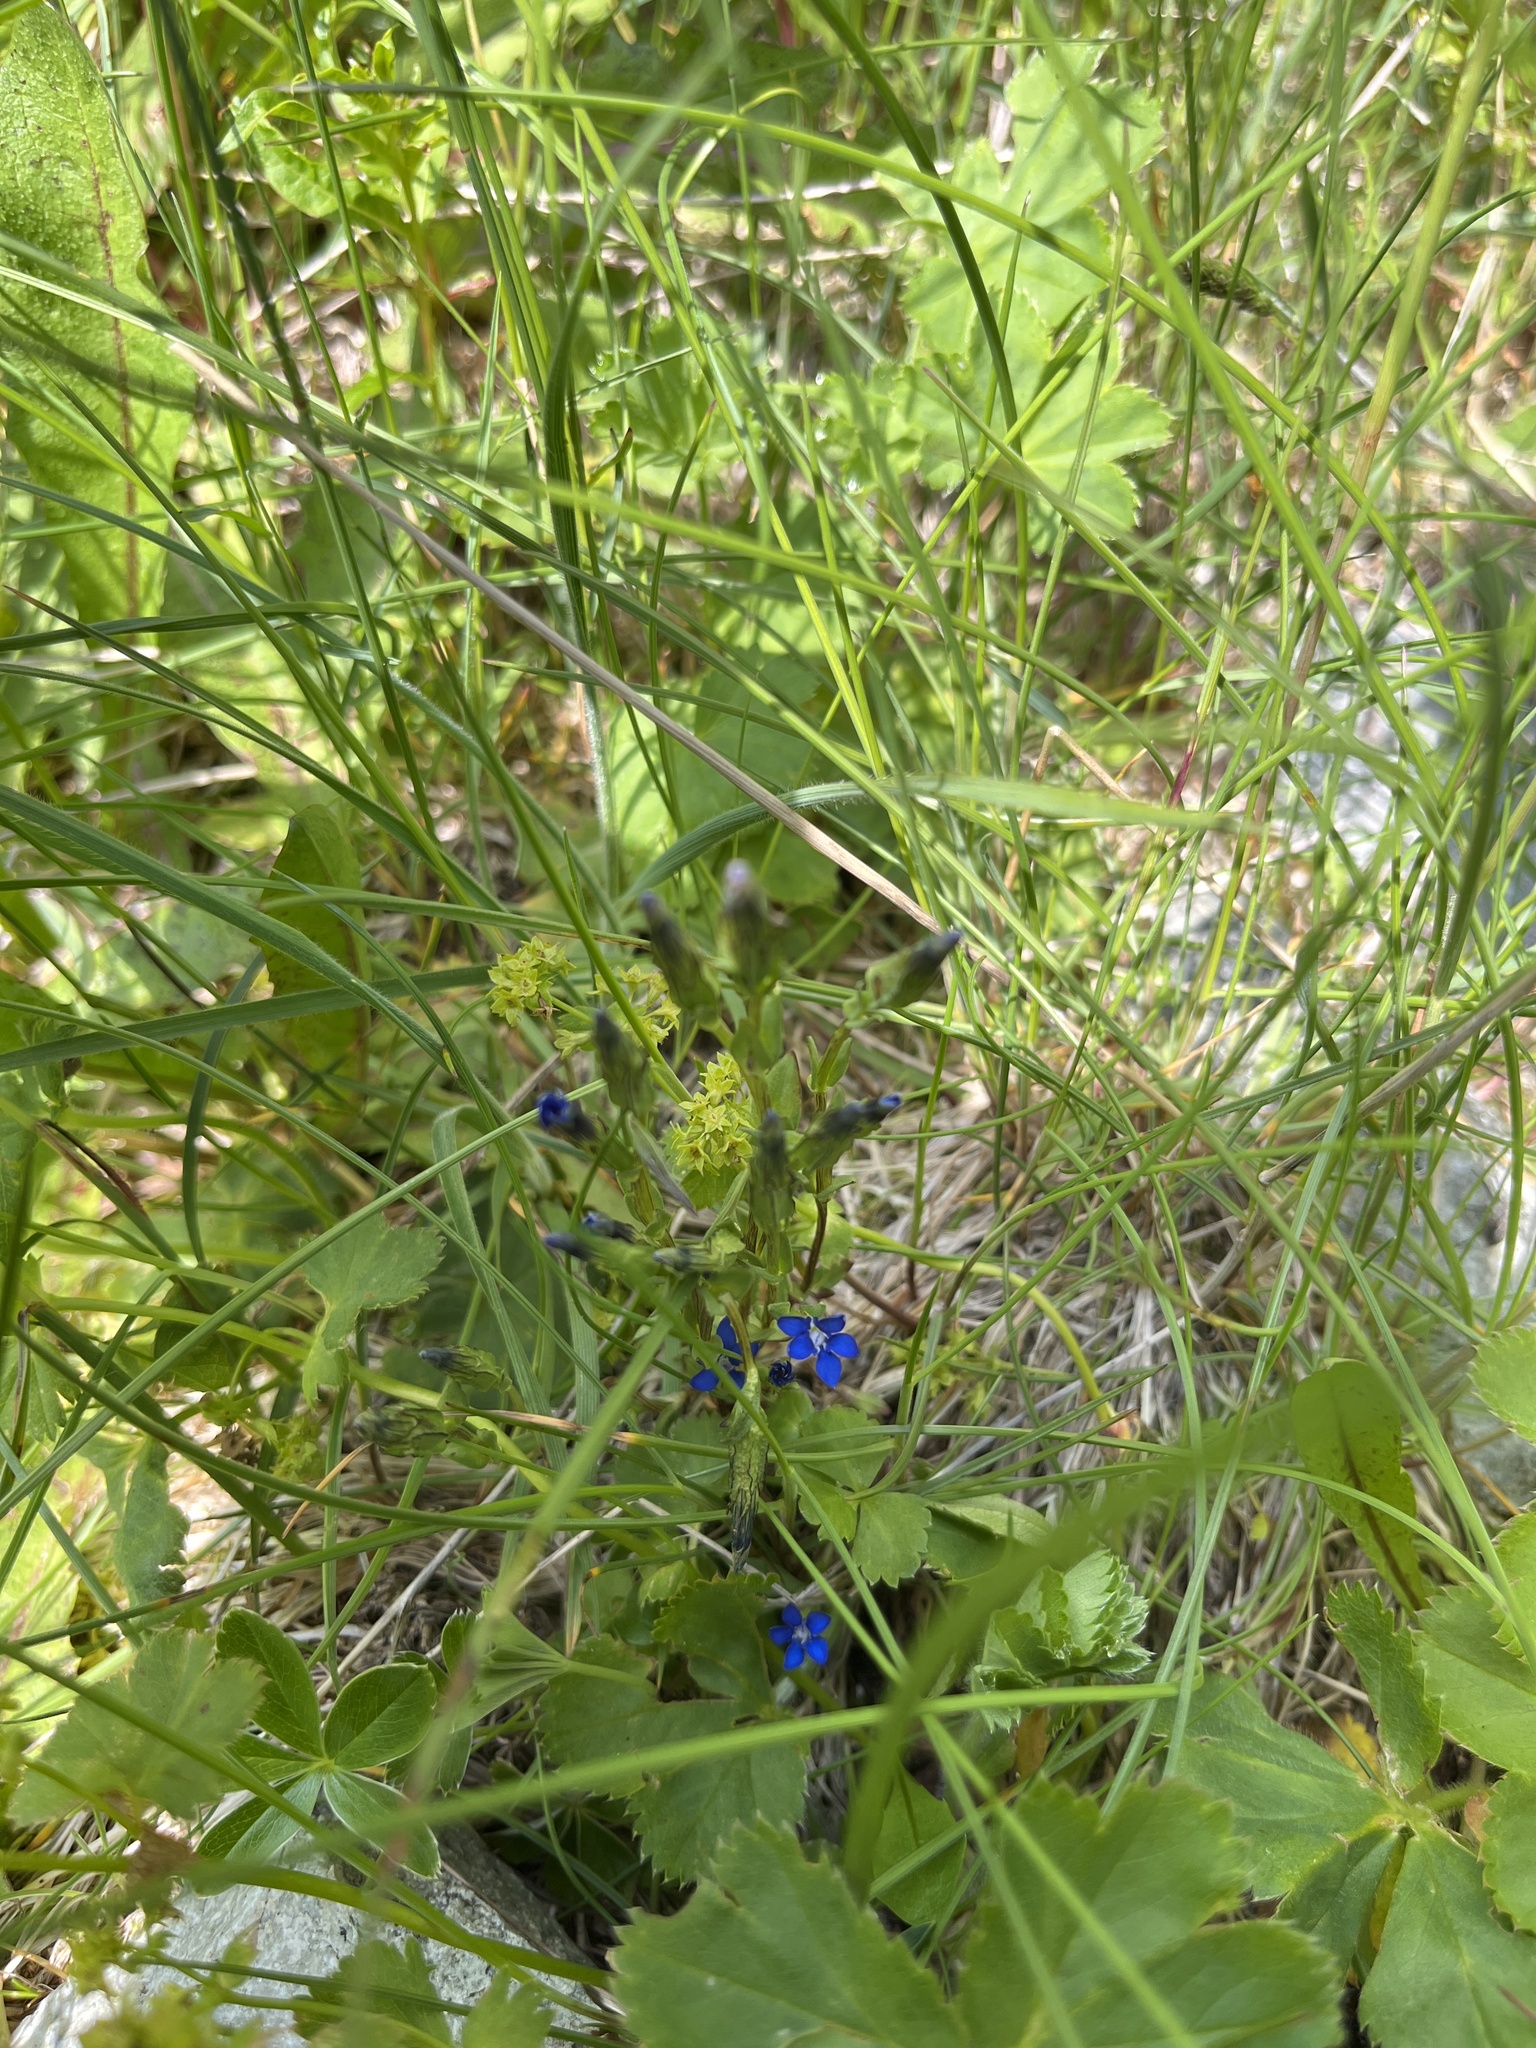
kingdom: Plantae
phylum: Tracheophyta
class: Magnoliopsida
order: Gentianales
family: Gentianaceae
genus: Gentiana
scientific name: Gentiana nivalis
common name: Alpine gentian
